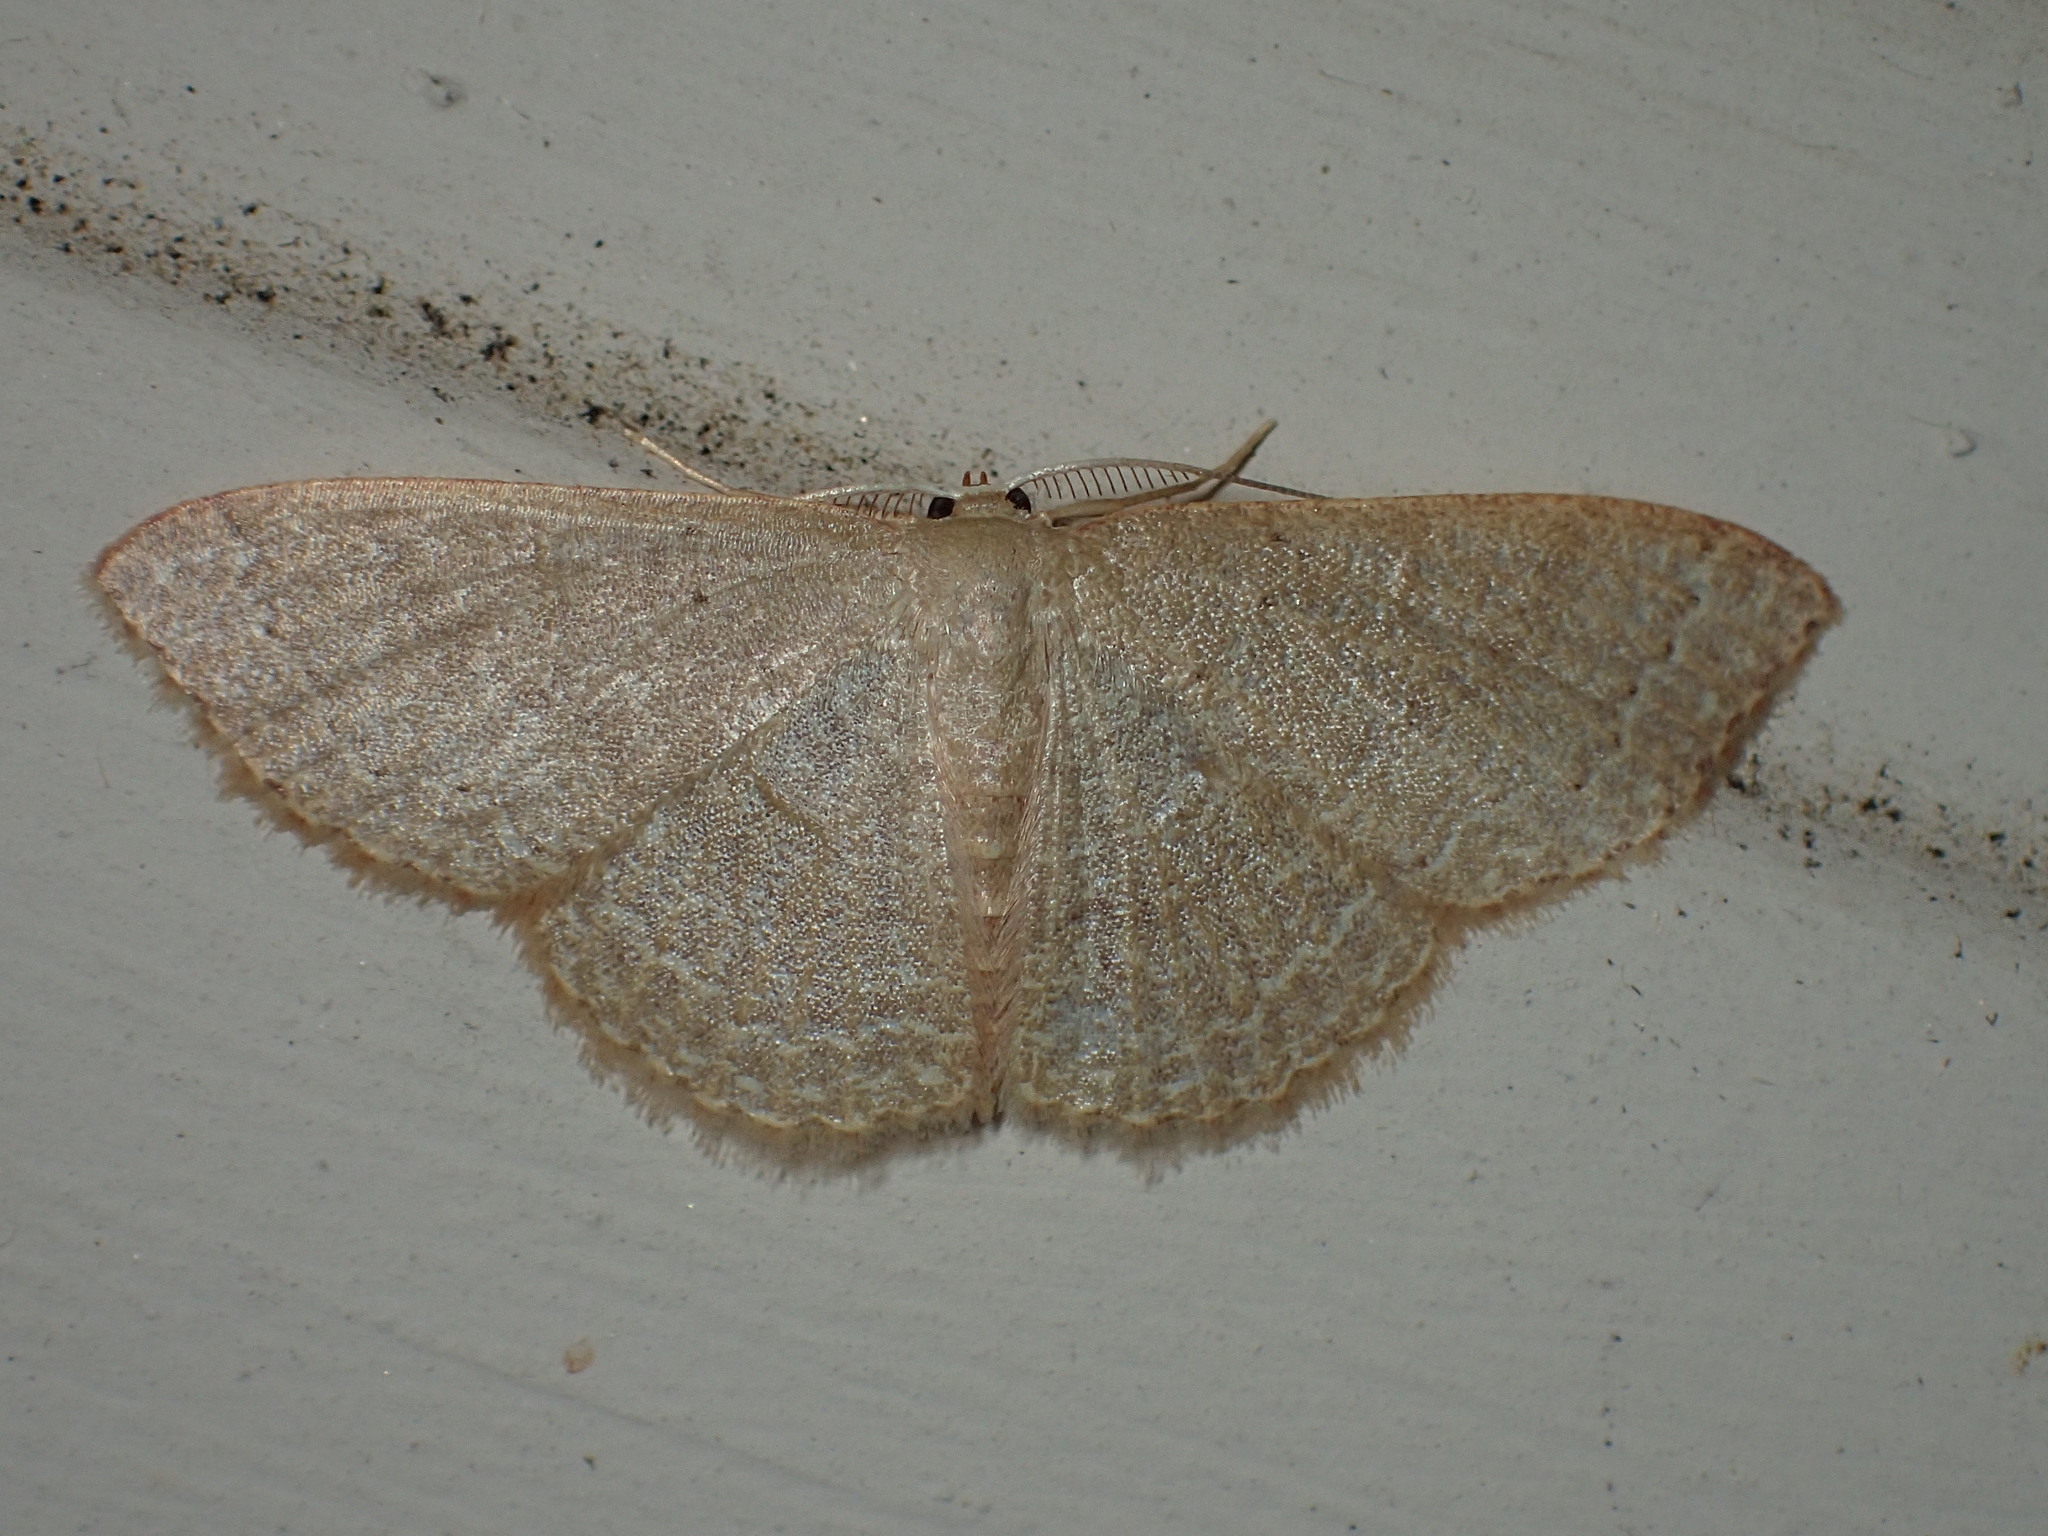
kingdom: Animalia
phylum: Arthropoda
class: Insecta
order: Lepidoptera
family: Geometridae
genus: Pleuroprucha
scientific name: Pleuroprucha insulsaria
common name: Common tan wave
